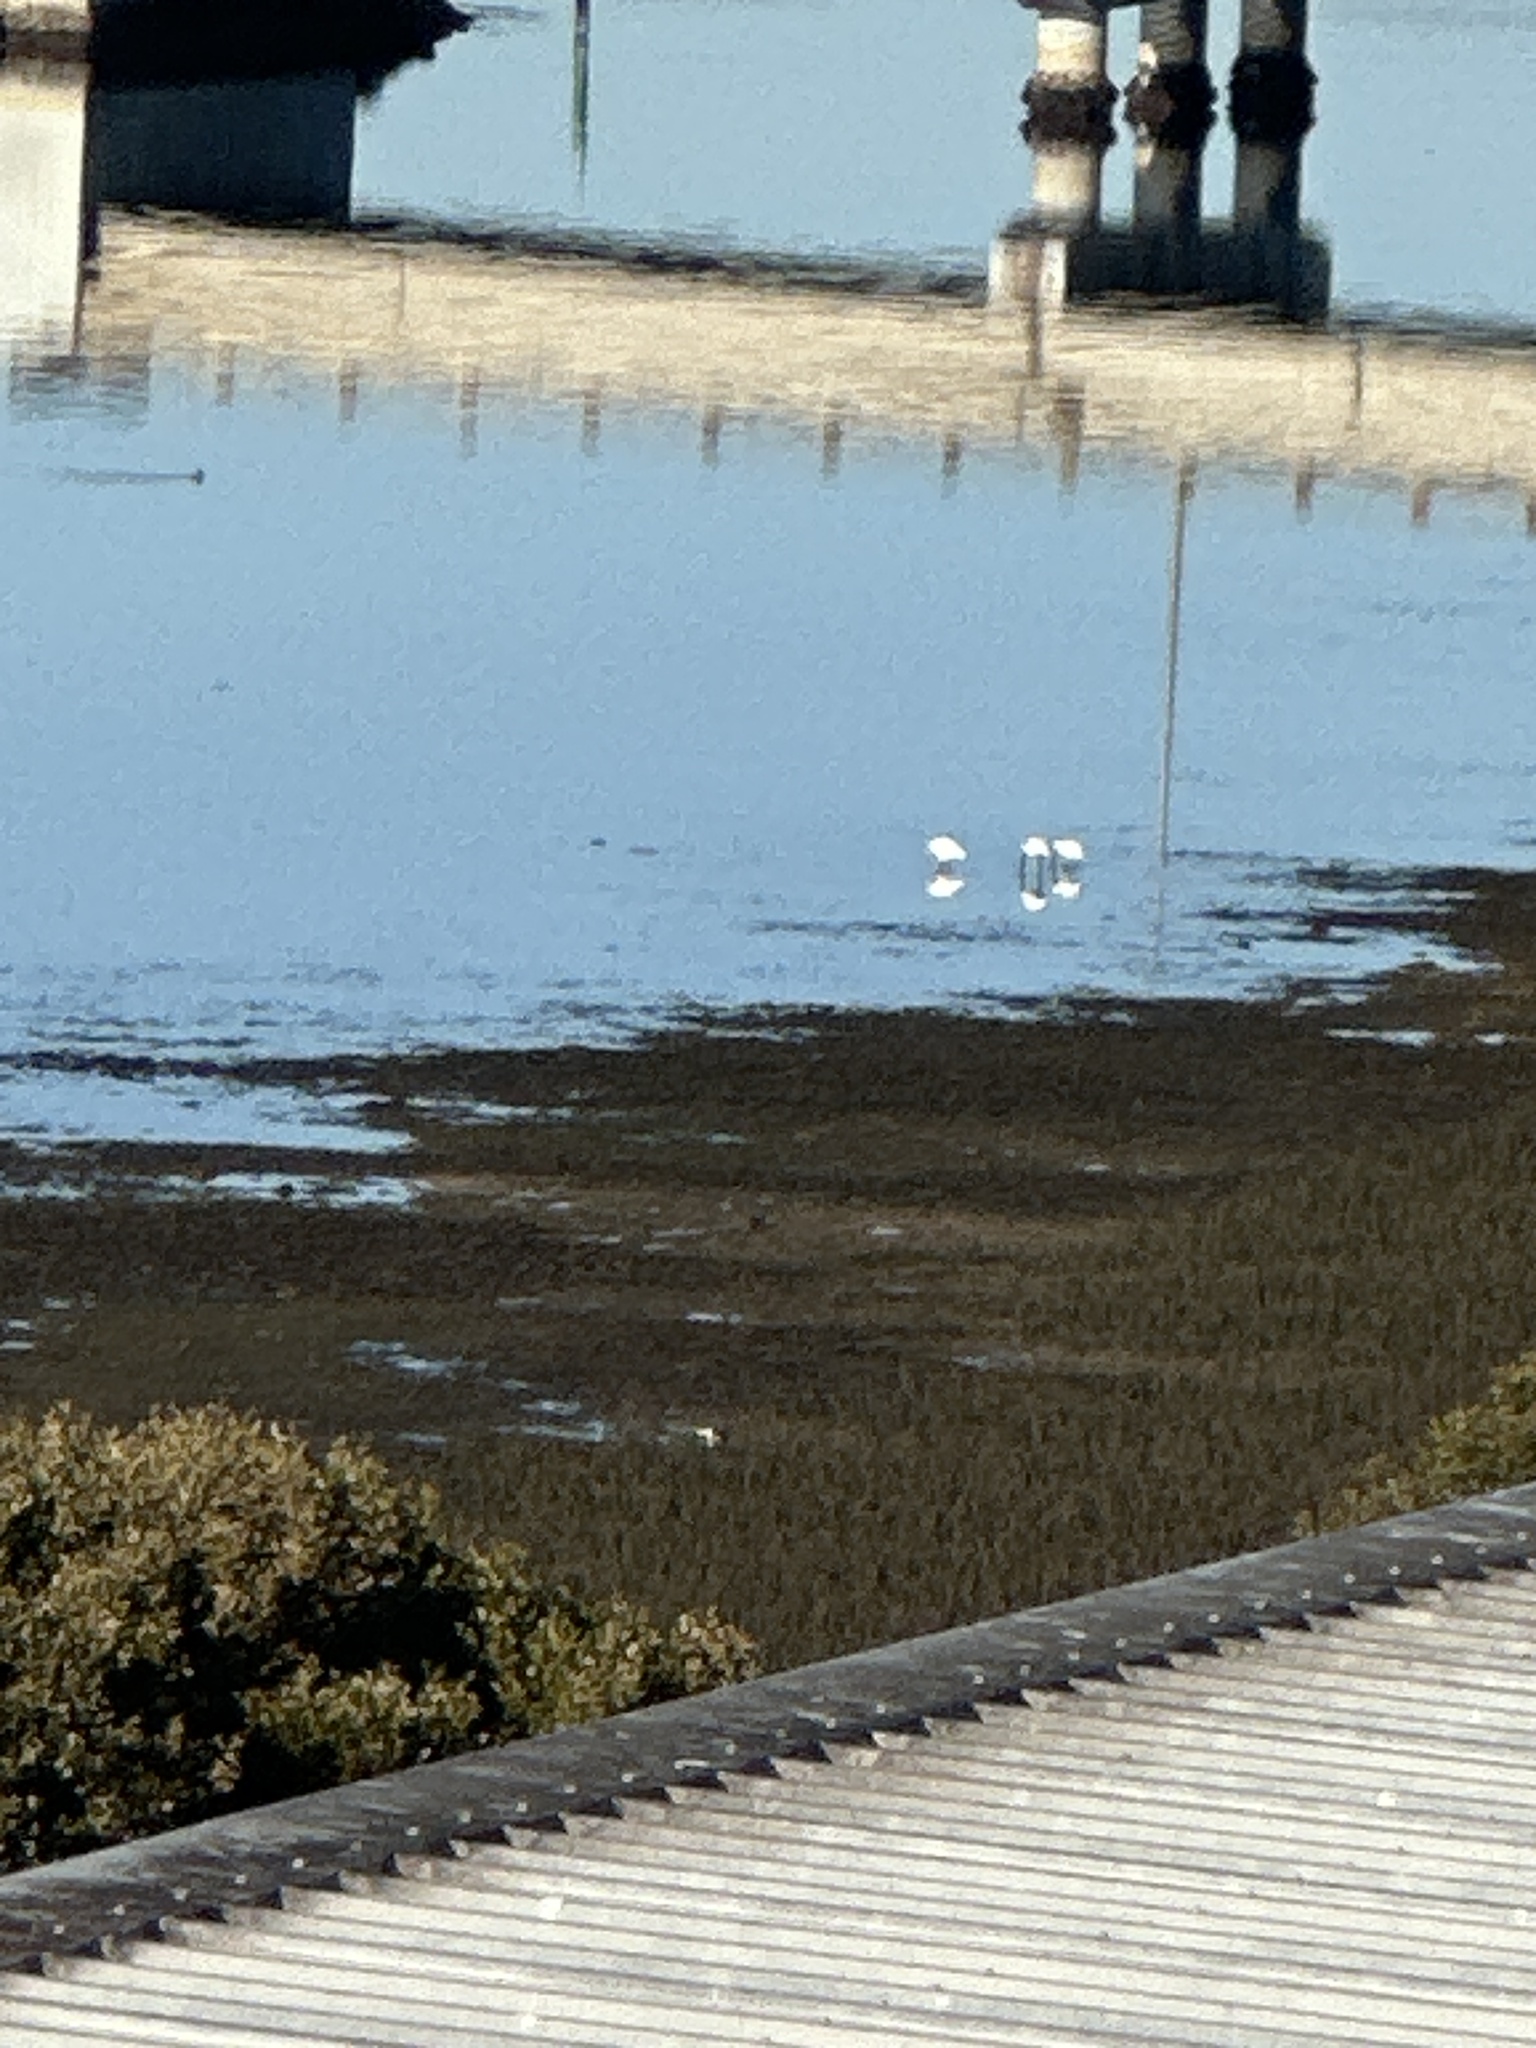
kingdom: Animalia
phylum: Chordata
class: Aves
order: Pelecaniformes
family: Threskiornithidae
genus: Platalea
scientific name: Platalea regia
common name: Royal spoonbill
